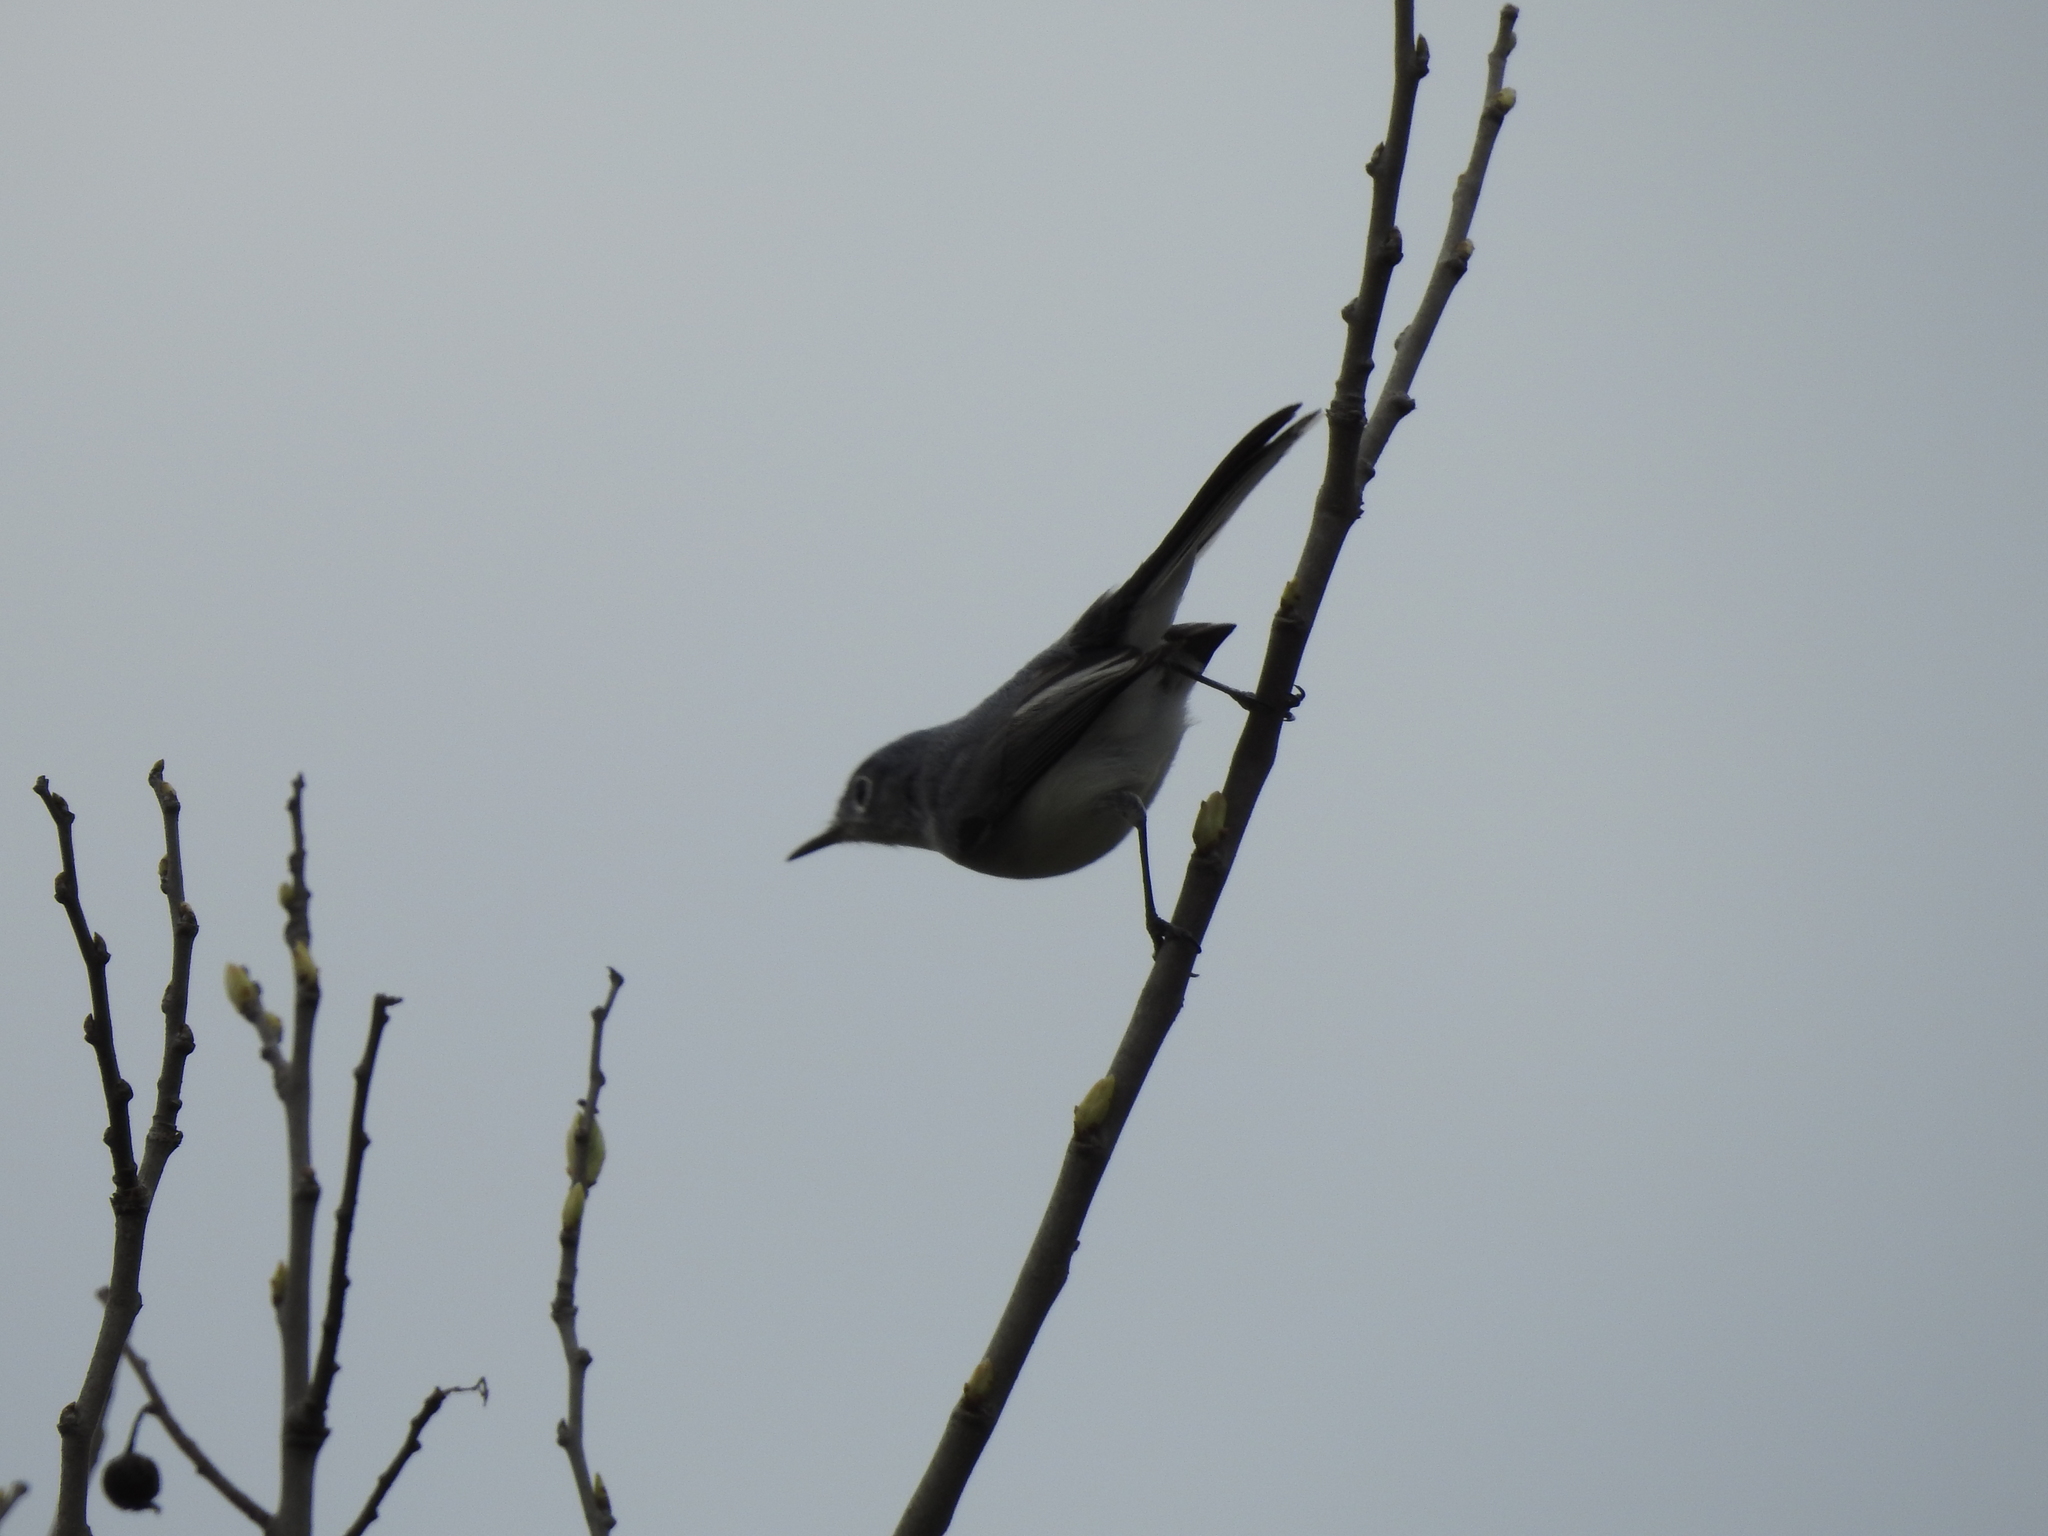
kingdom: Animalia
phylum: Chordata
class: Aves
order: Passeriformes
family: Polioptilidae
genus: Polioptila
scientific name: Polioptila caerulea
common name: Blue-gray gnatcatcher
